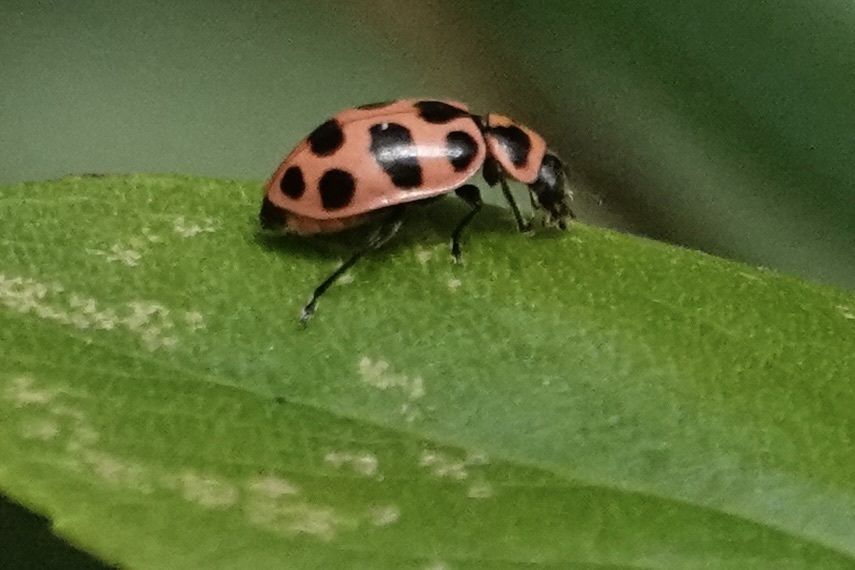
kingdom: Animalia
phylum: Arthropoda
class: Insecta
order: Coleoptera
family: Coccinellidae
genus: Coleomegilla
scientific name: Coleomegilla maculata
